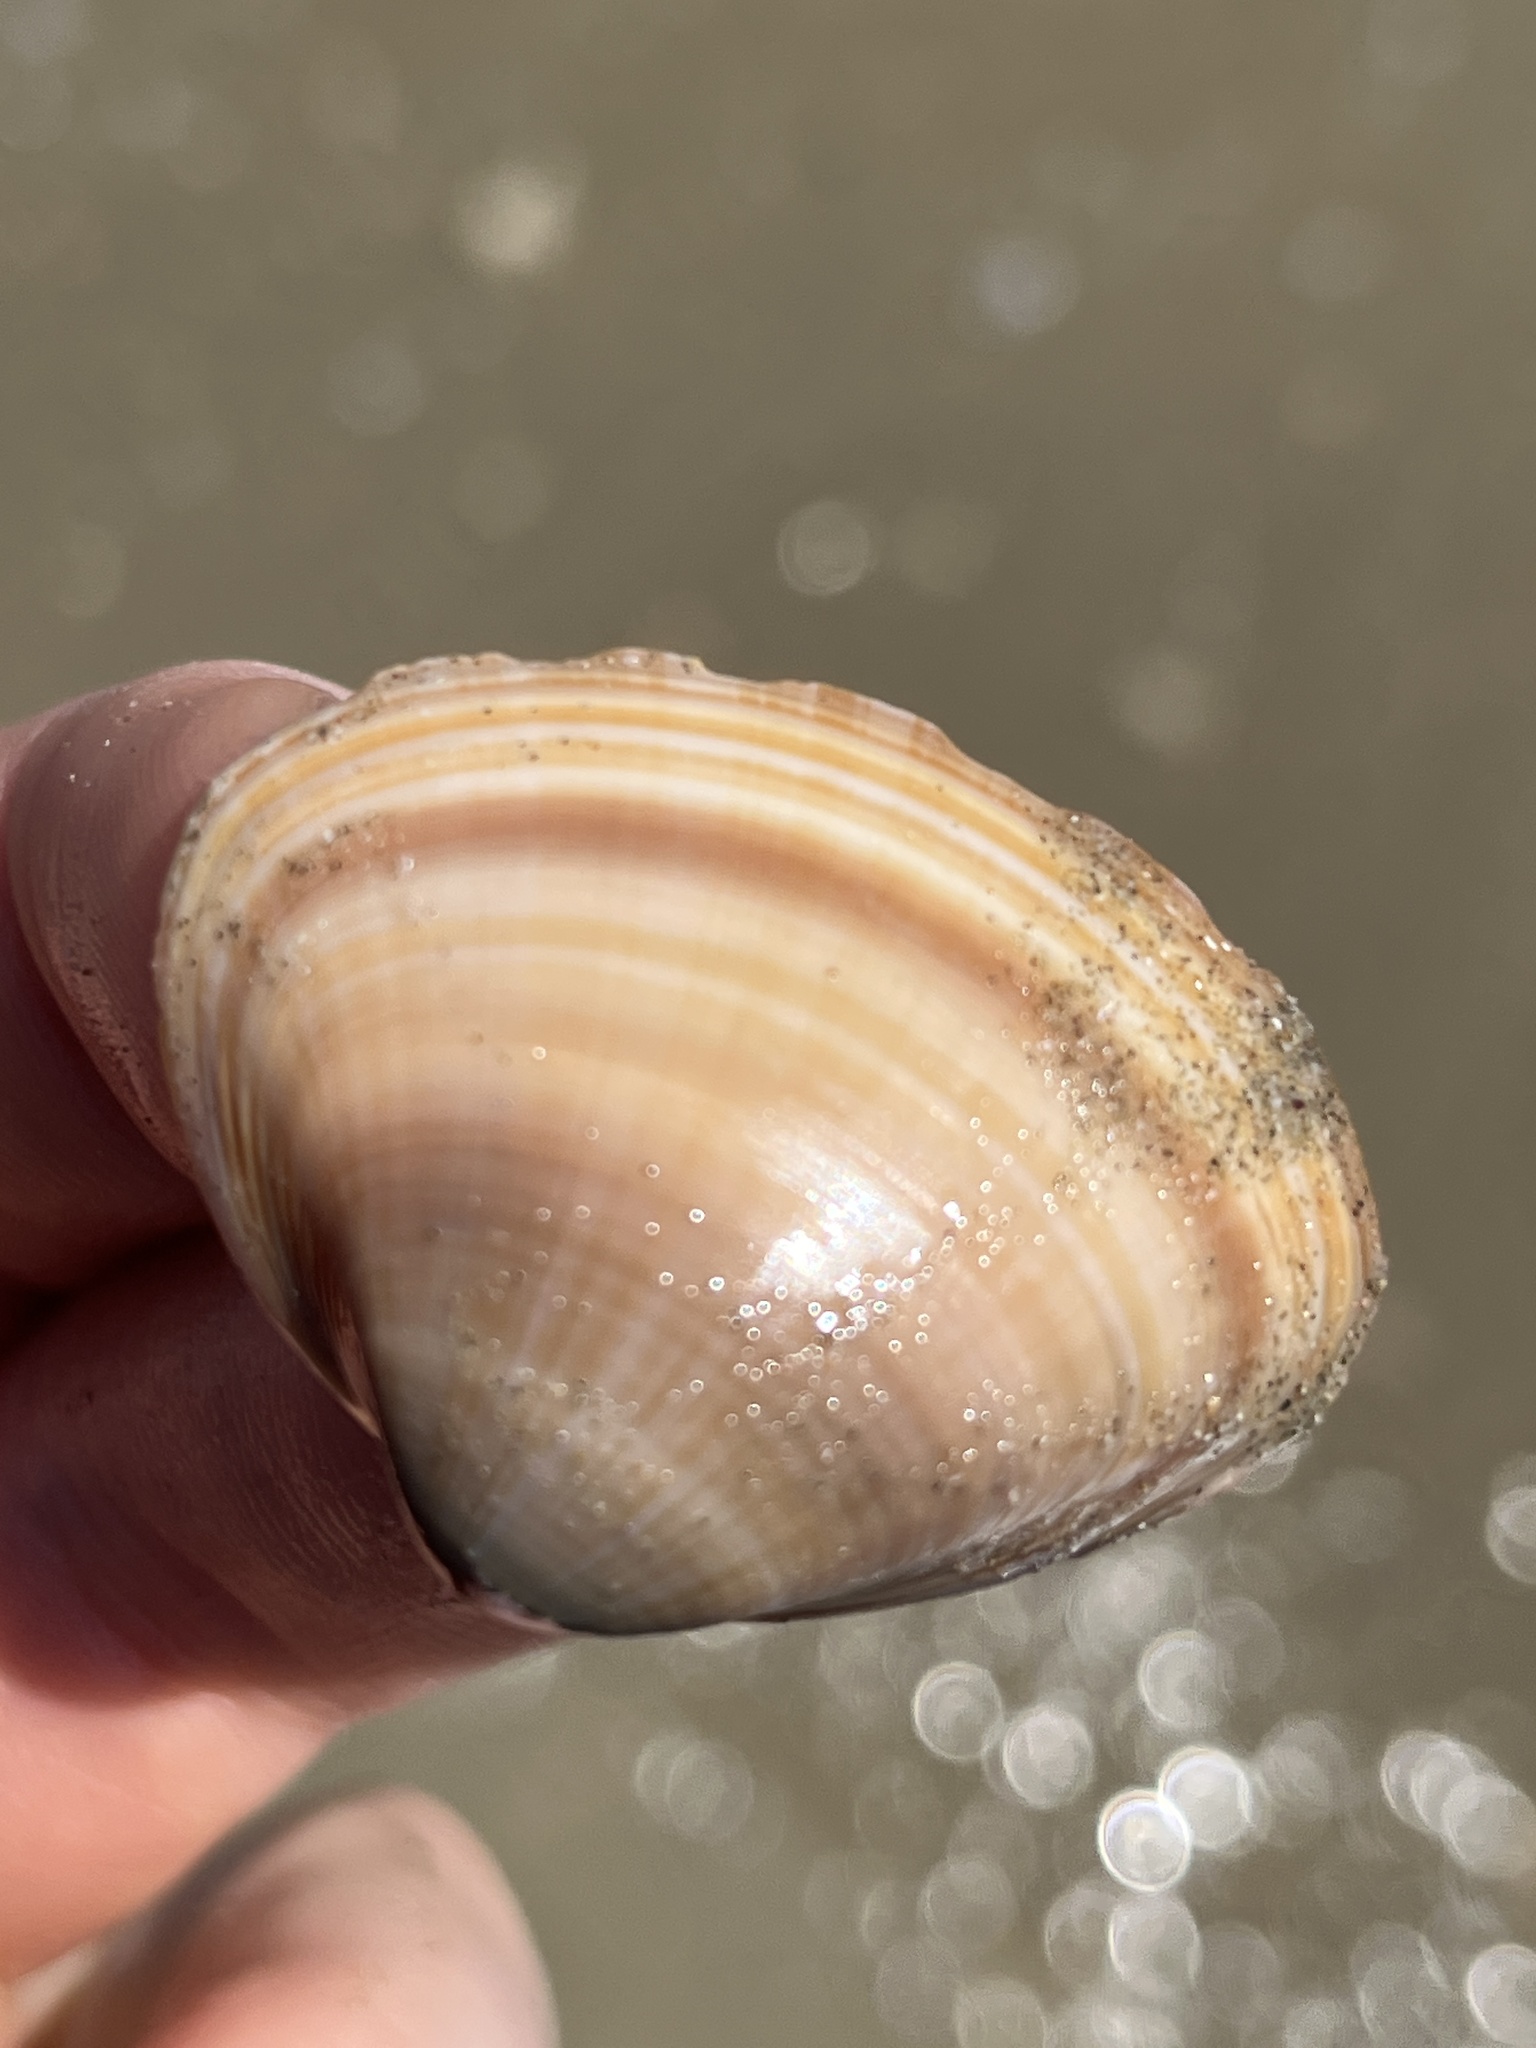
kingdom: Animalia
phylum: Mollusca
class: Bivalvia
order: Venerida
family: Mactridae
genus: Mactra
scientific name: Mactra chinensis
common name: Chinese surf clam
